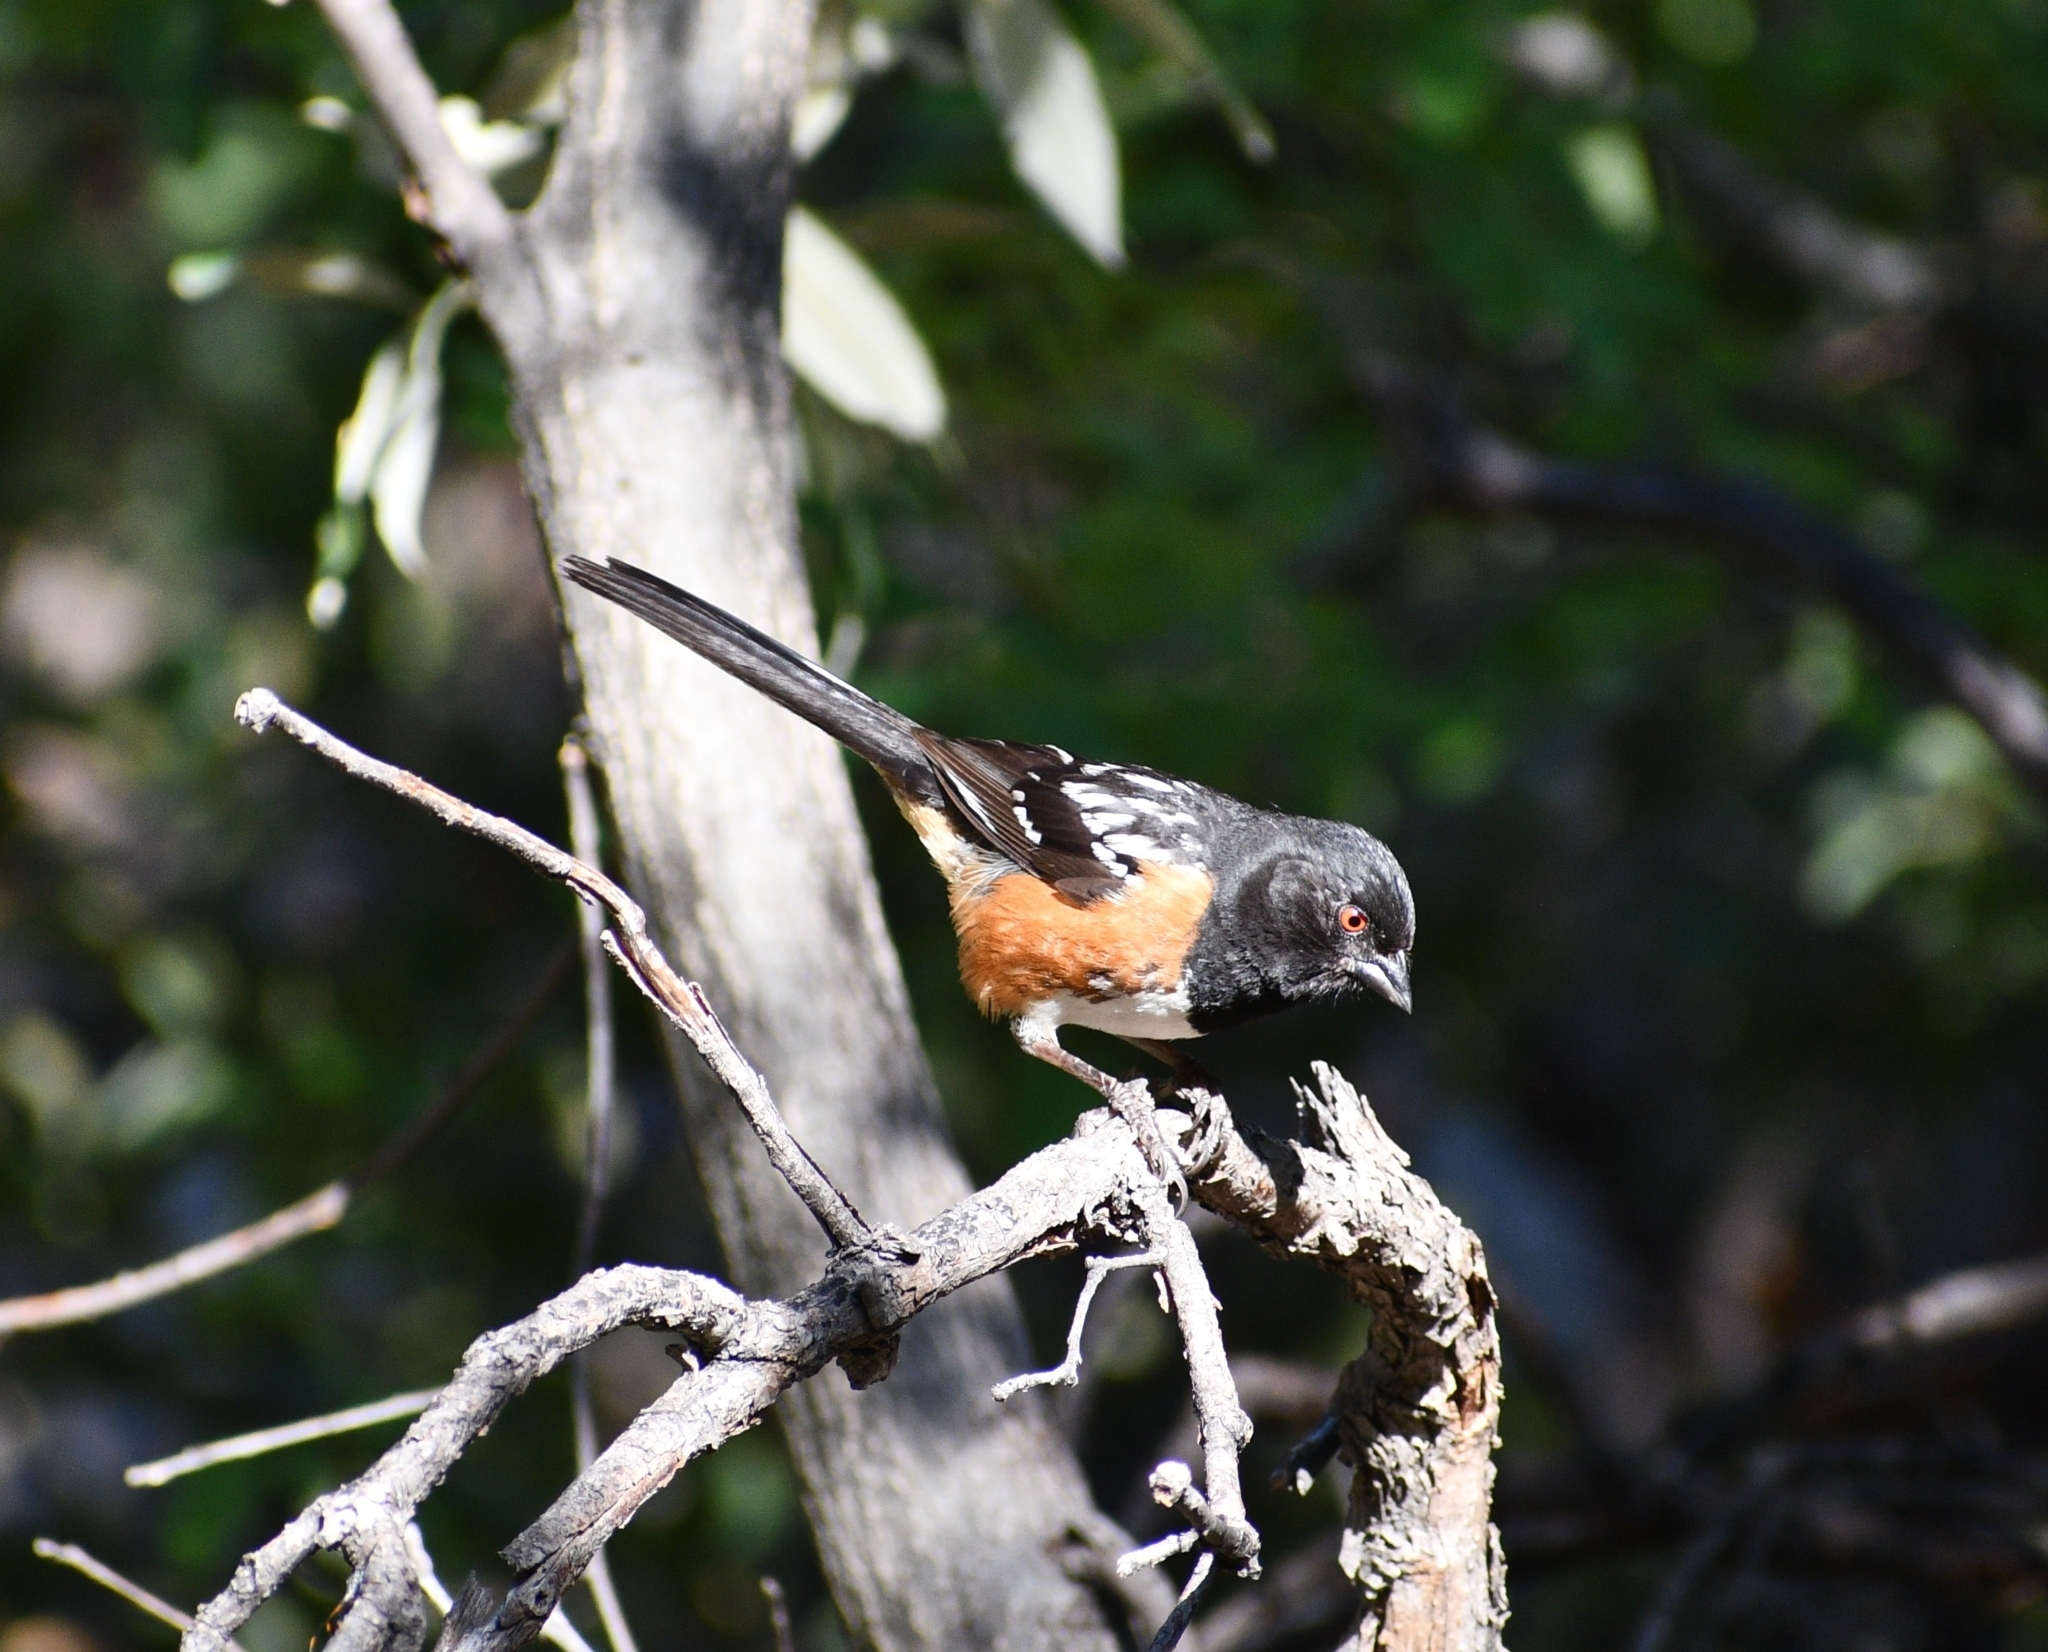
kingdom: Animalia
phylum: Chordata
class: Aves
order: Passeriformes
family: Passerellidae
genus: Pipilo
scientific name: Pipilo maculatus
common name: Spotted towhee
